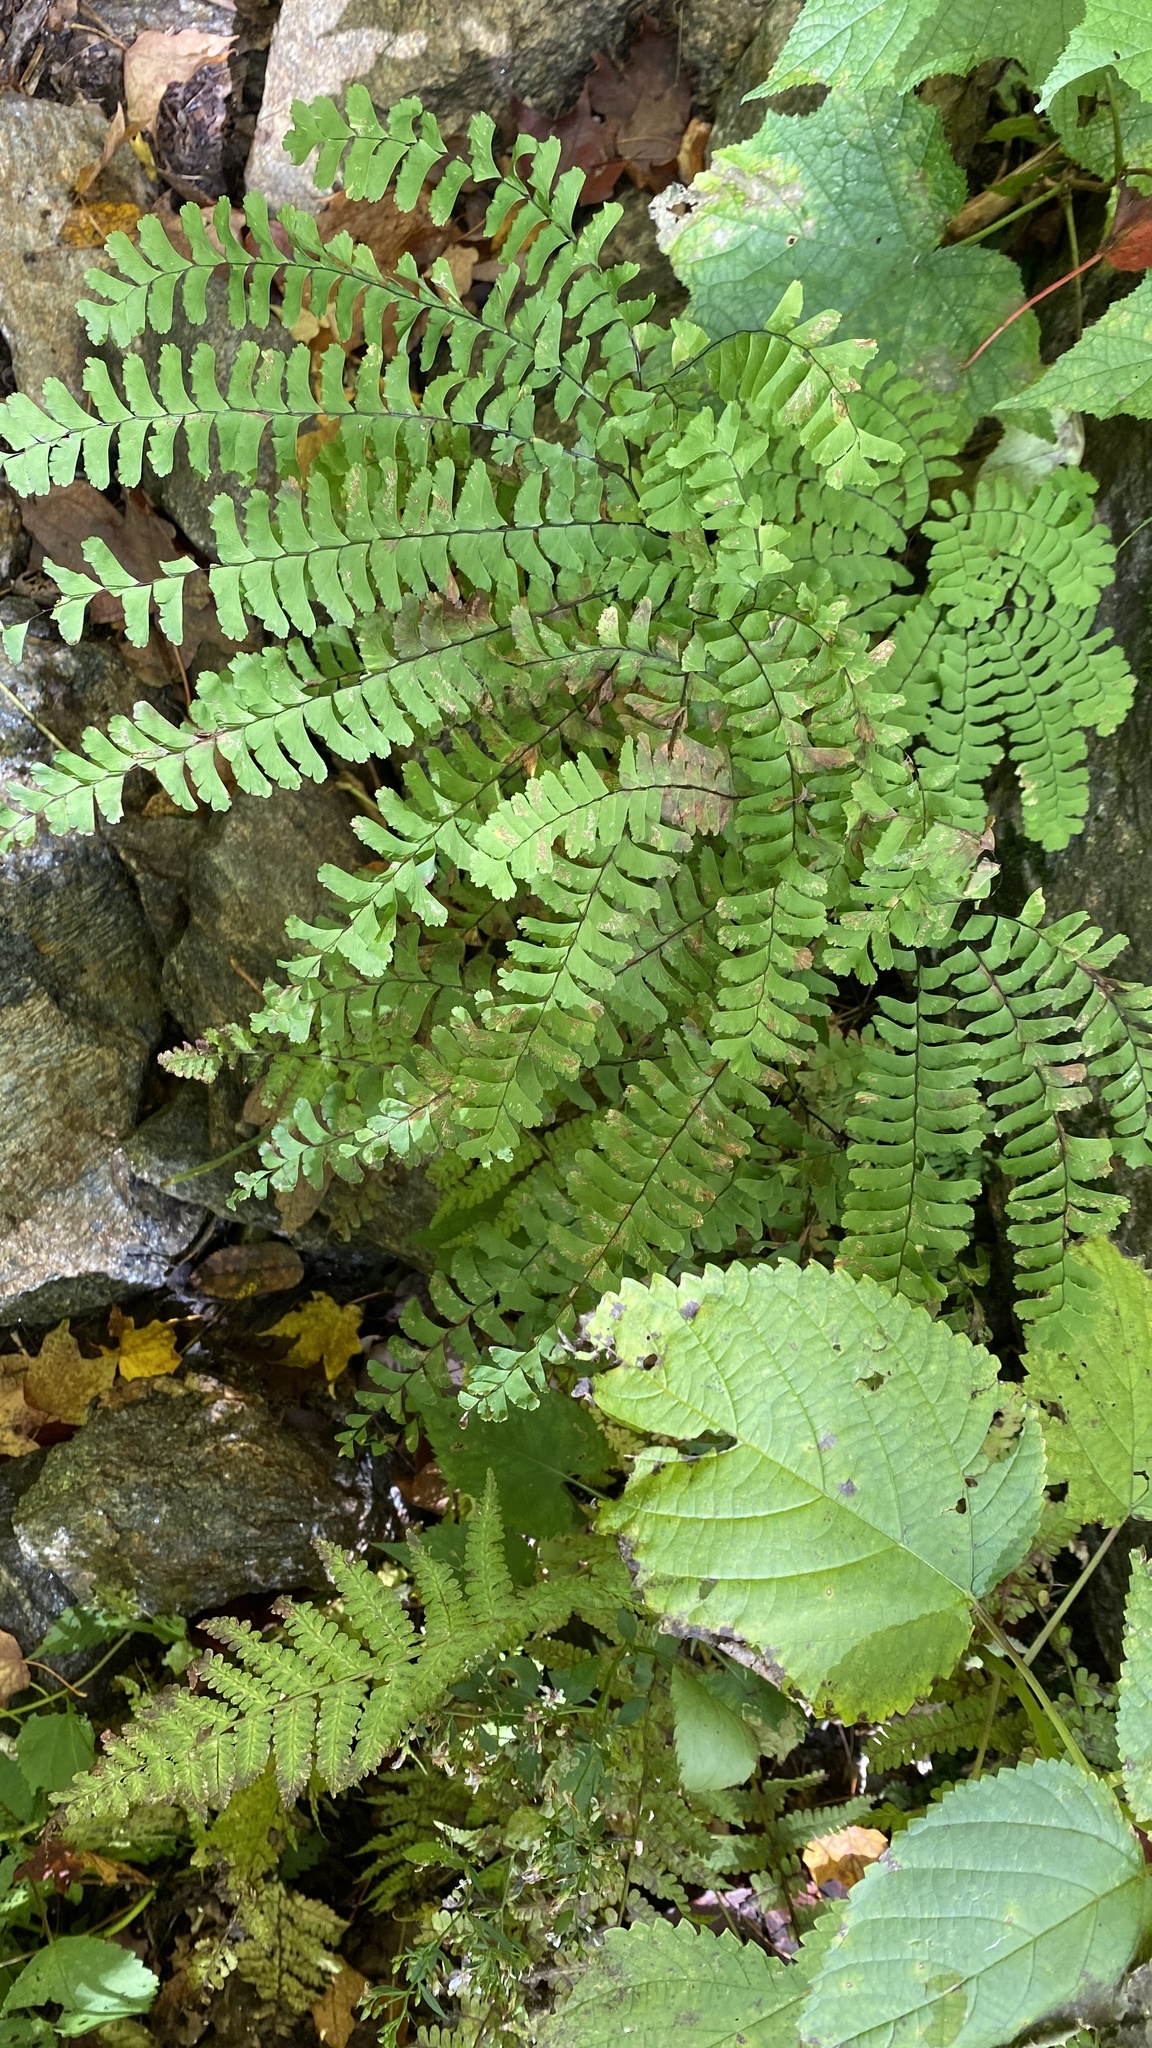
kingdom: Plantae
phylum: Tracheophyta
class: Polypodiopsida
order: Polypodiales
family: Pteridaceae
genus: Adiantum
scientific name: Adiantum pedatum
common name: Five-finger fern
